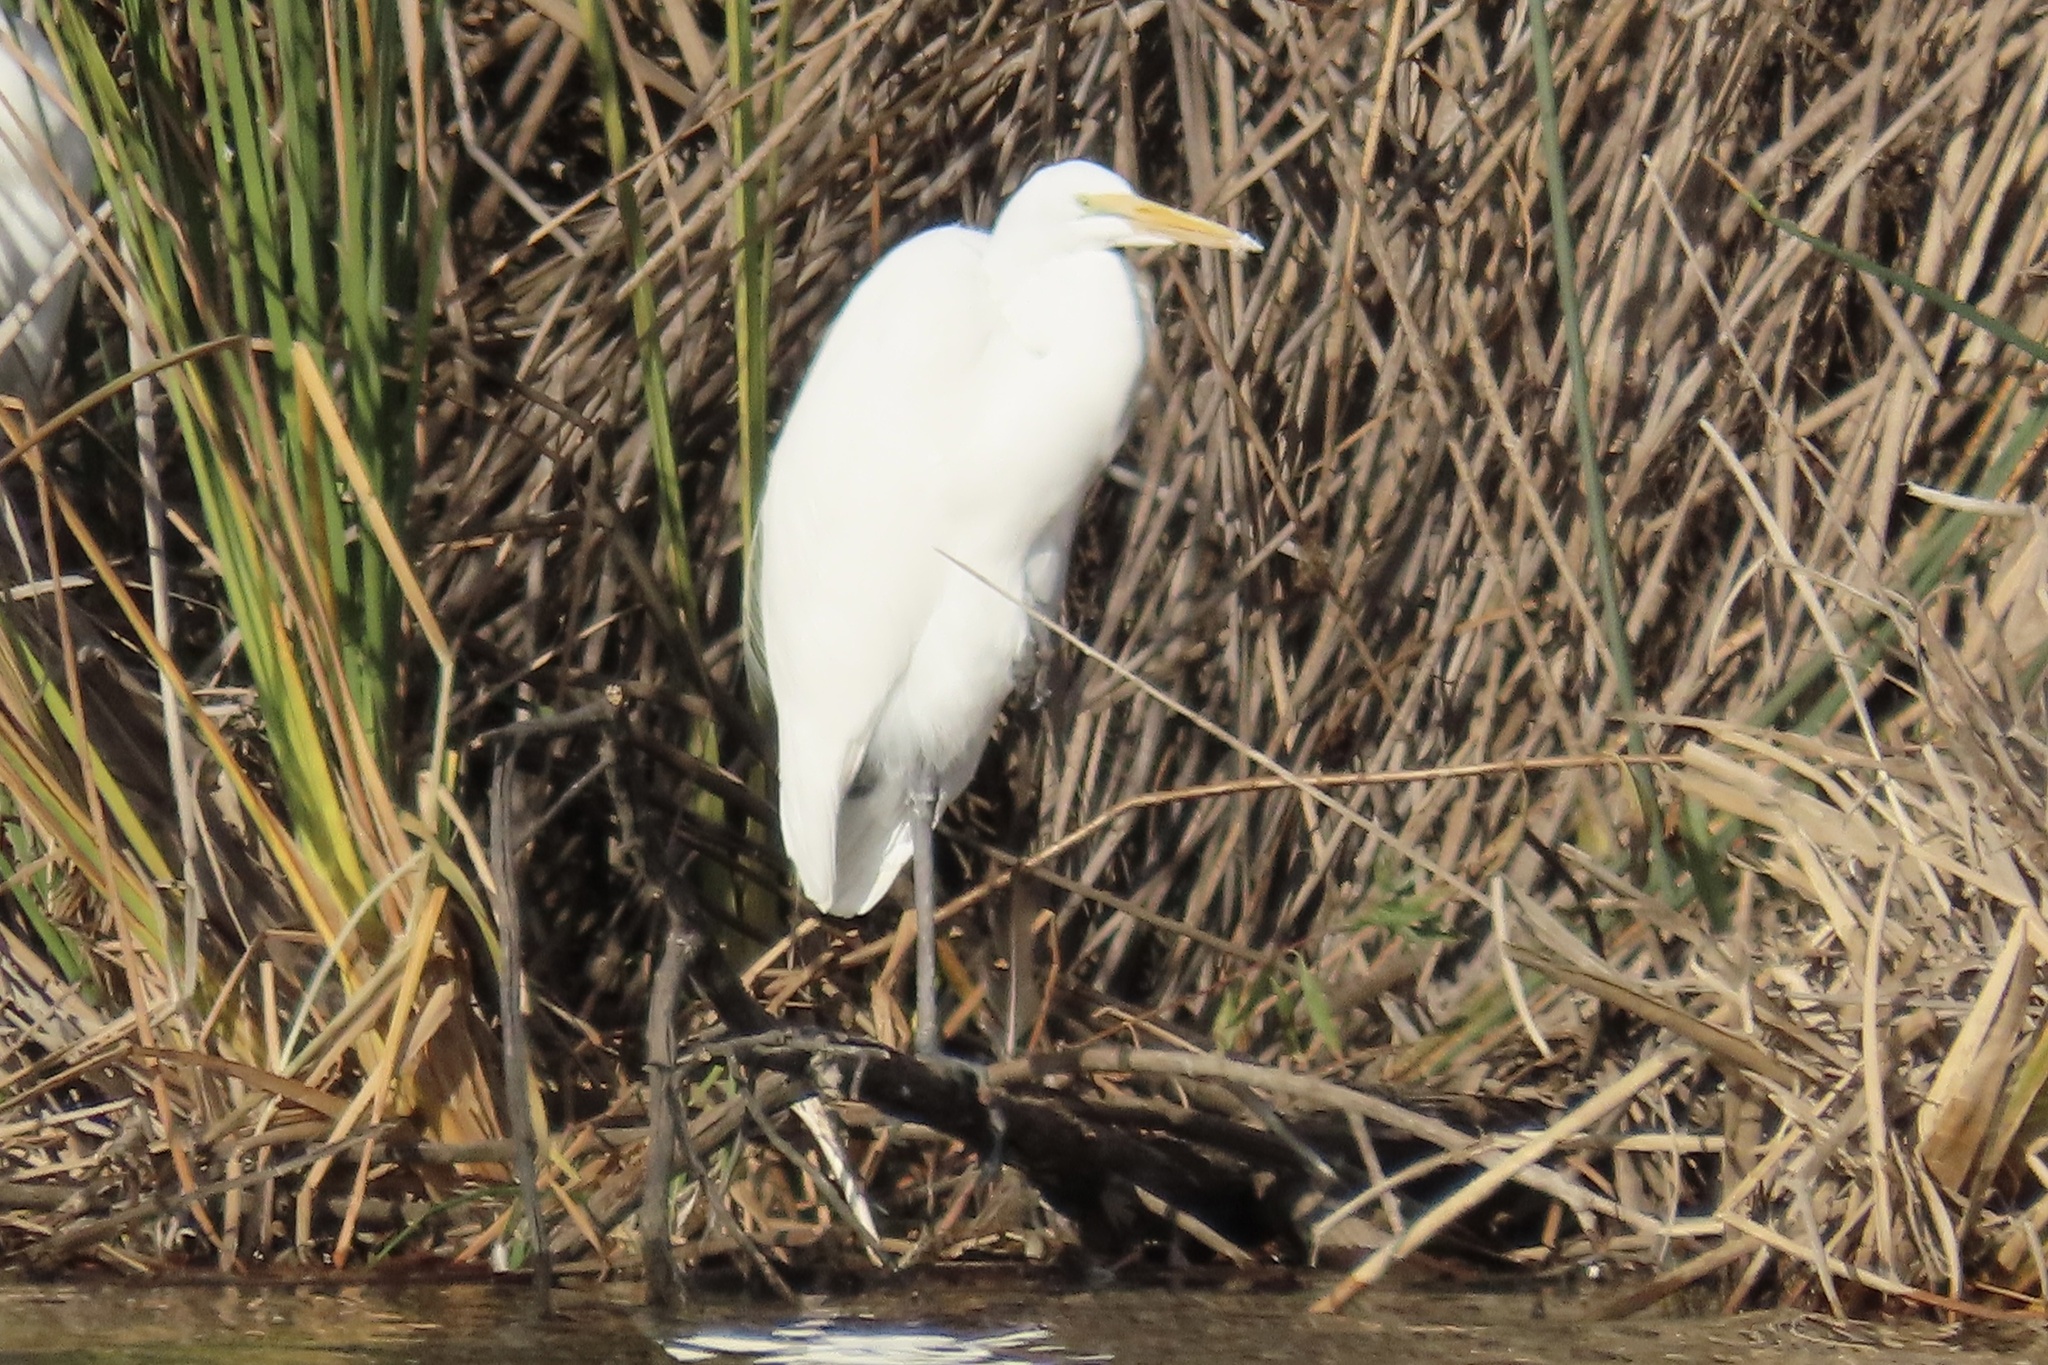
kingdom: Animalia
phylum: Chordata
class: Aves
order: Pelecaniformes
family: Ardeidae
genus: Ardea
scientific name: Ardea alba
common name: Great egret
